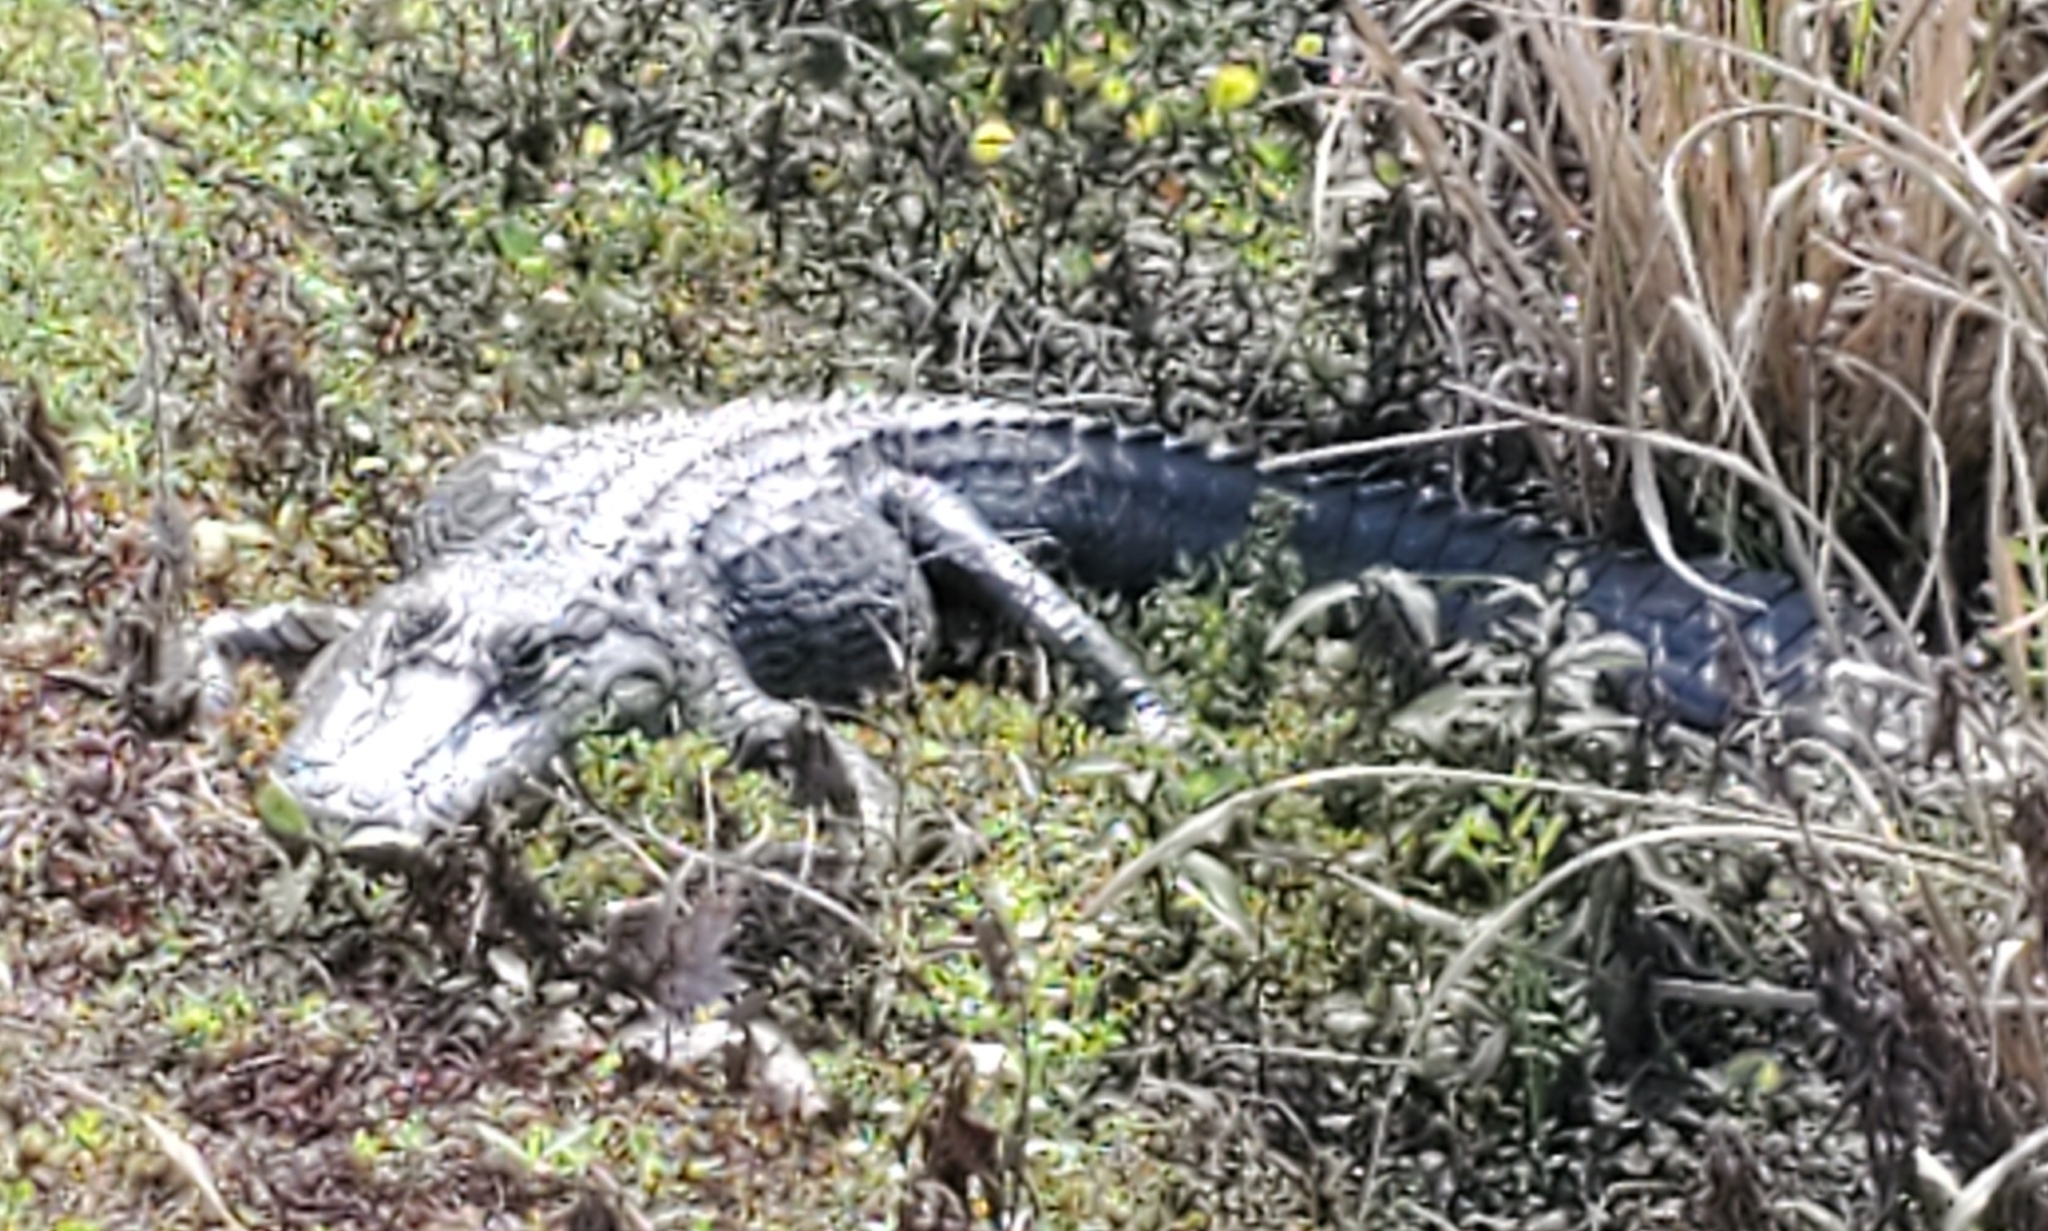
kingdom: Animalia
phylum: Chordata
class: Crocodylia
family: Alligatoridae
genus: Alligator
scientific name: Alligator mississippiensis
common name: American alligator
